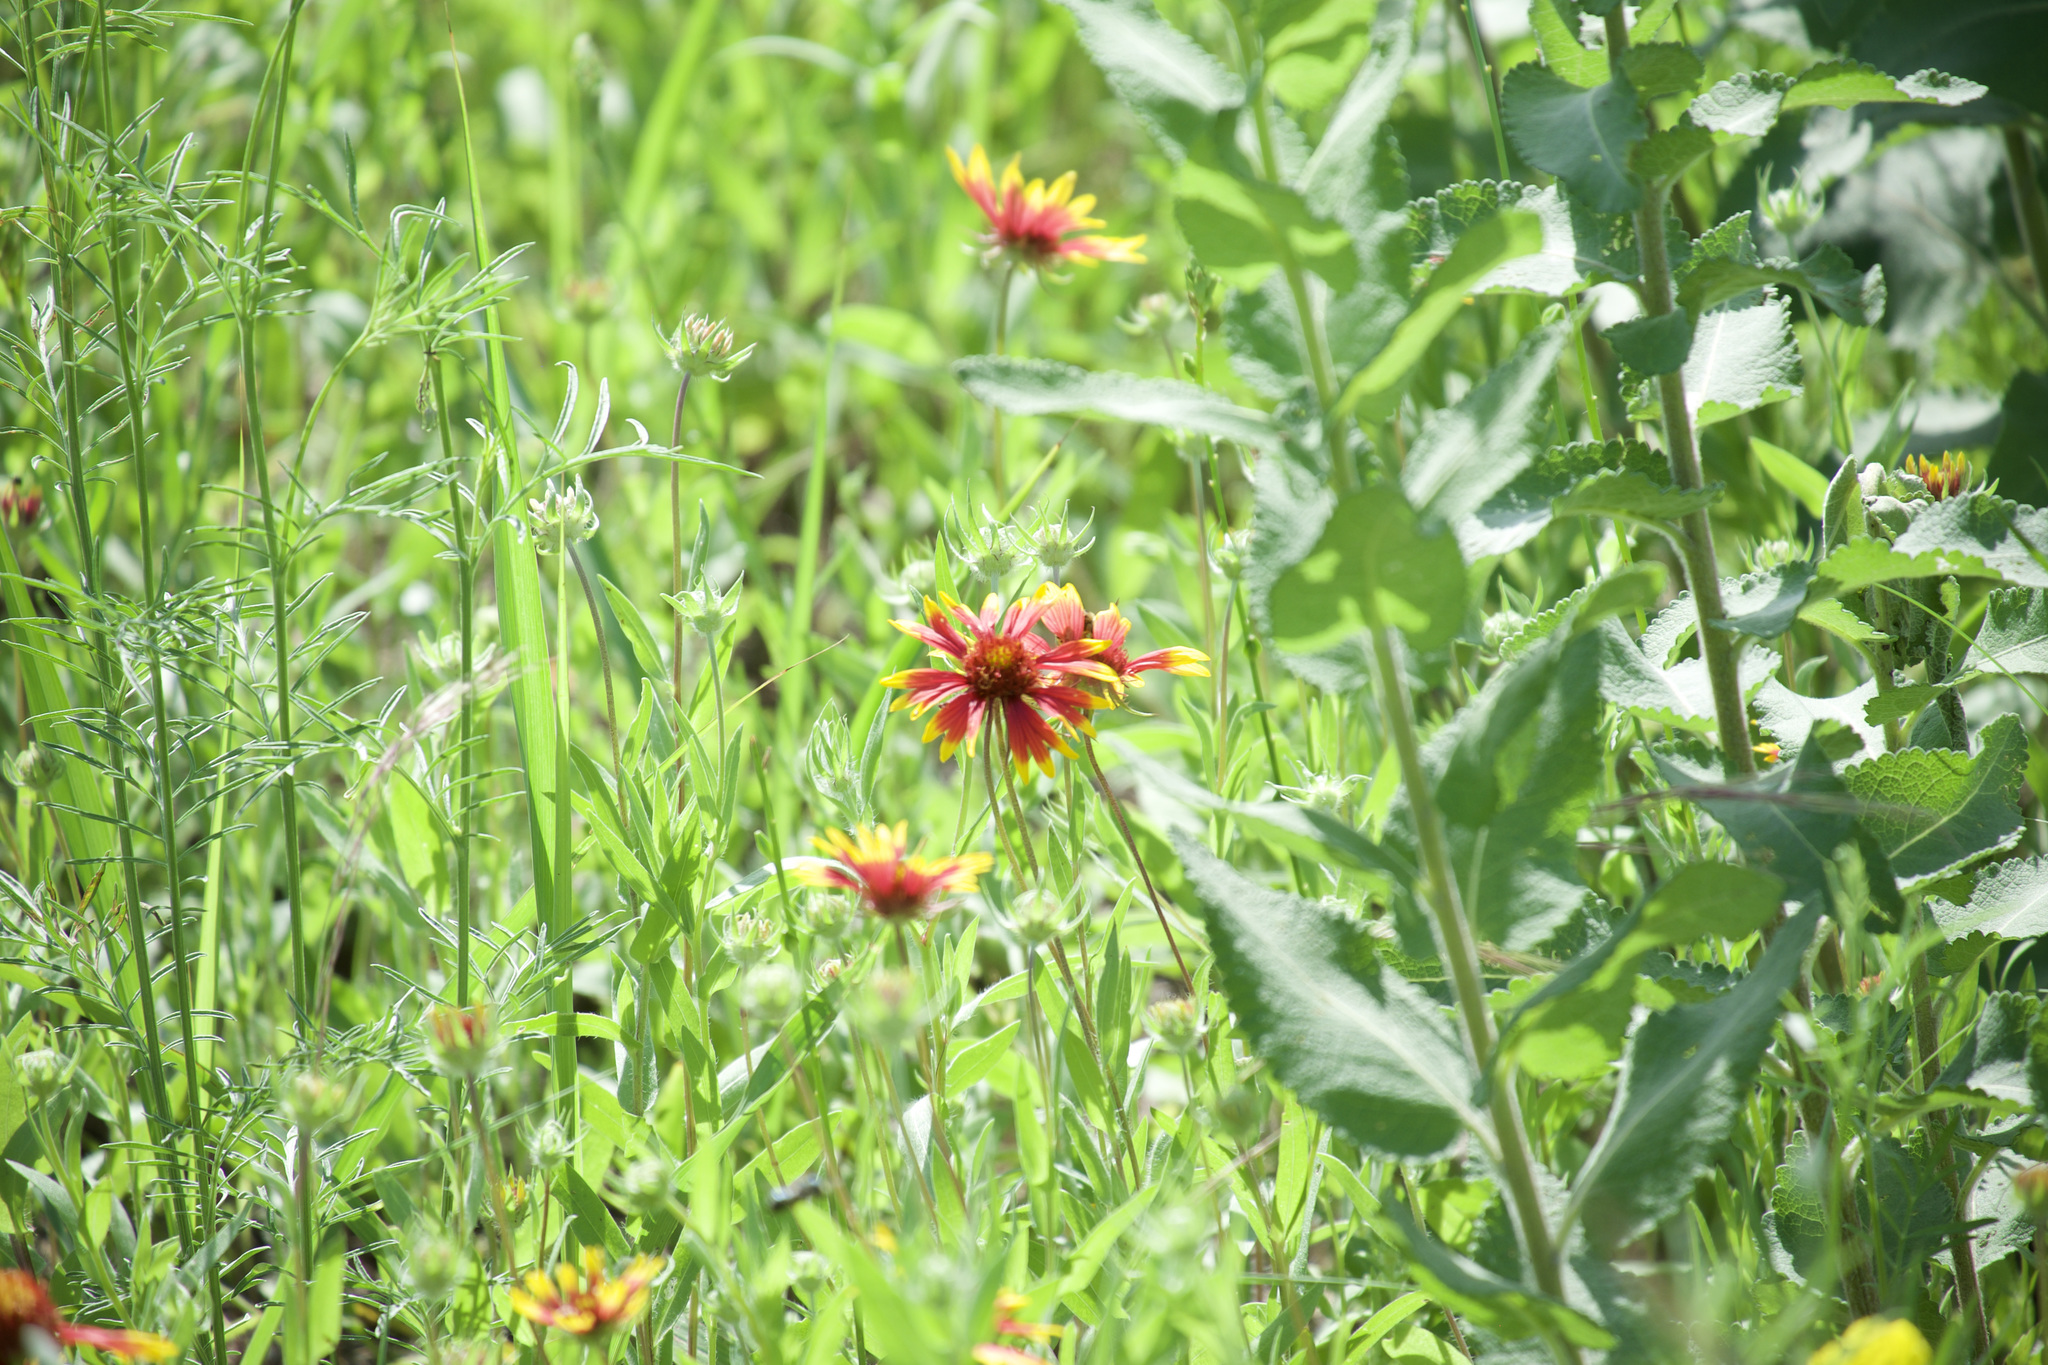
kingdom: Plantae
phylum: Tracheophyta
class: Magnoliopsida
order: Asterales
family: Asteraceae
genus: Gaillardia
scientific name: Gaillardia pulchella
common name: Firewheel
